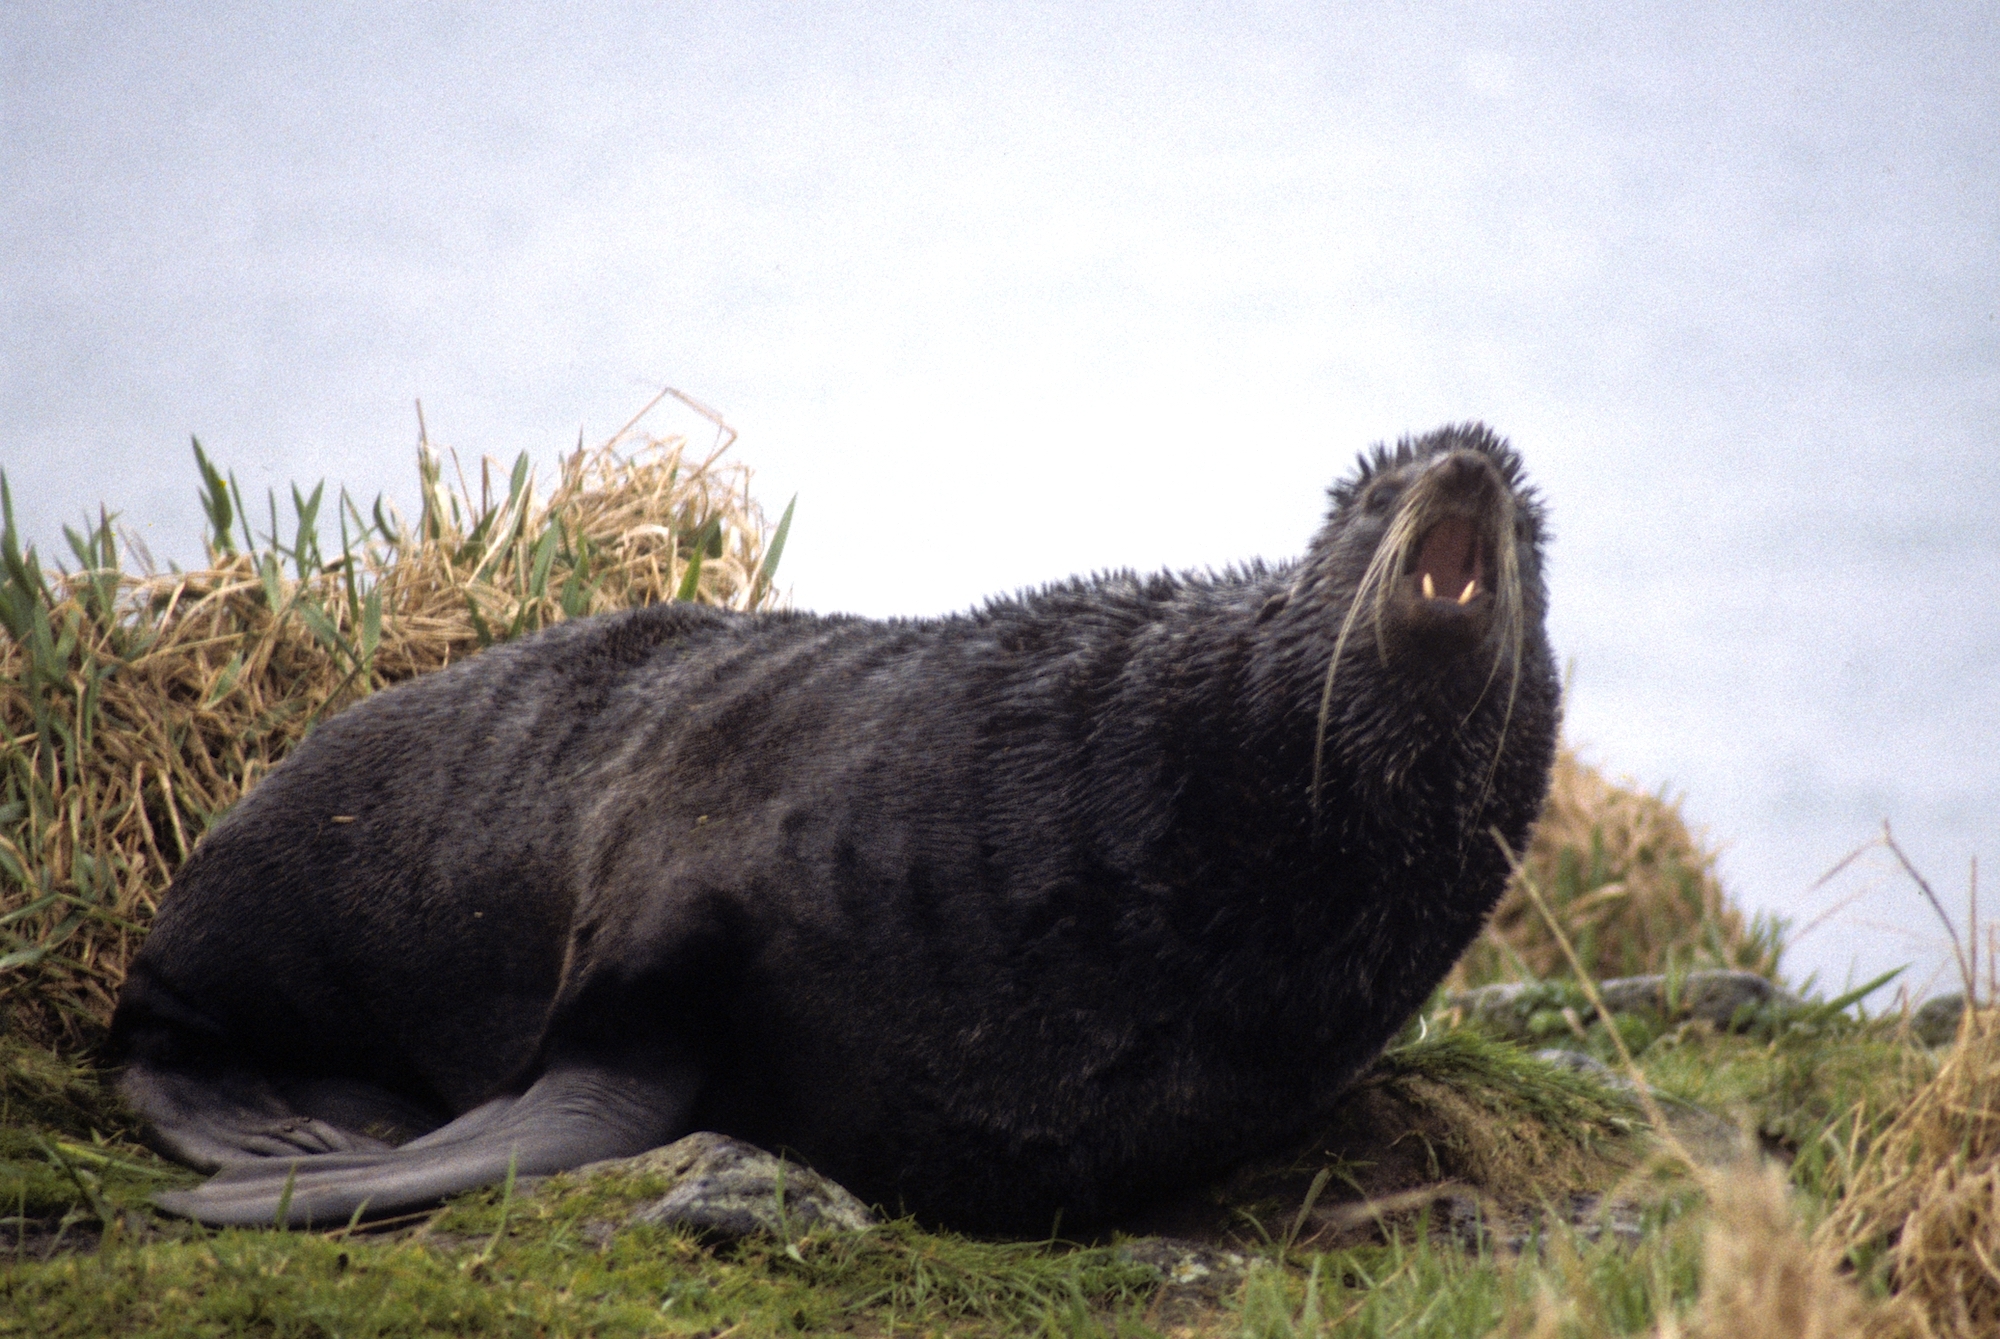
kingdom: Animalia
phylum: Chordata
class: Mammalia
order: Carnivora
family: Otariidae
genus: Callorhinus
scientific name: Callorhinus ursinus
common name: Northern fur seal
